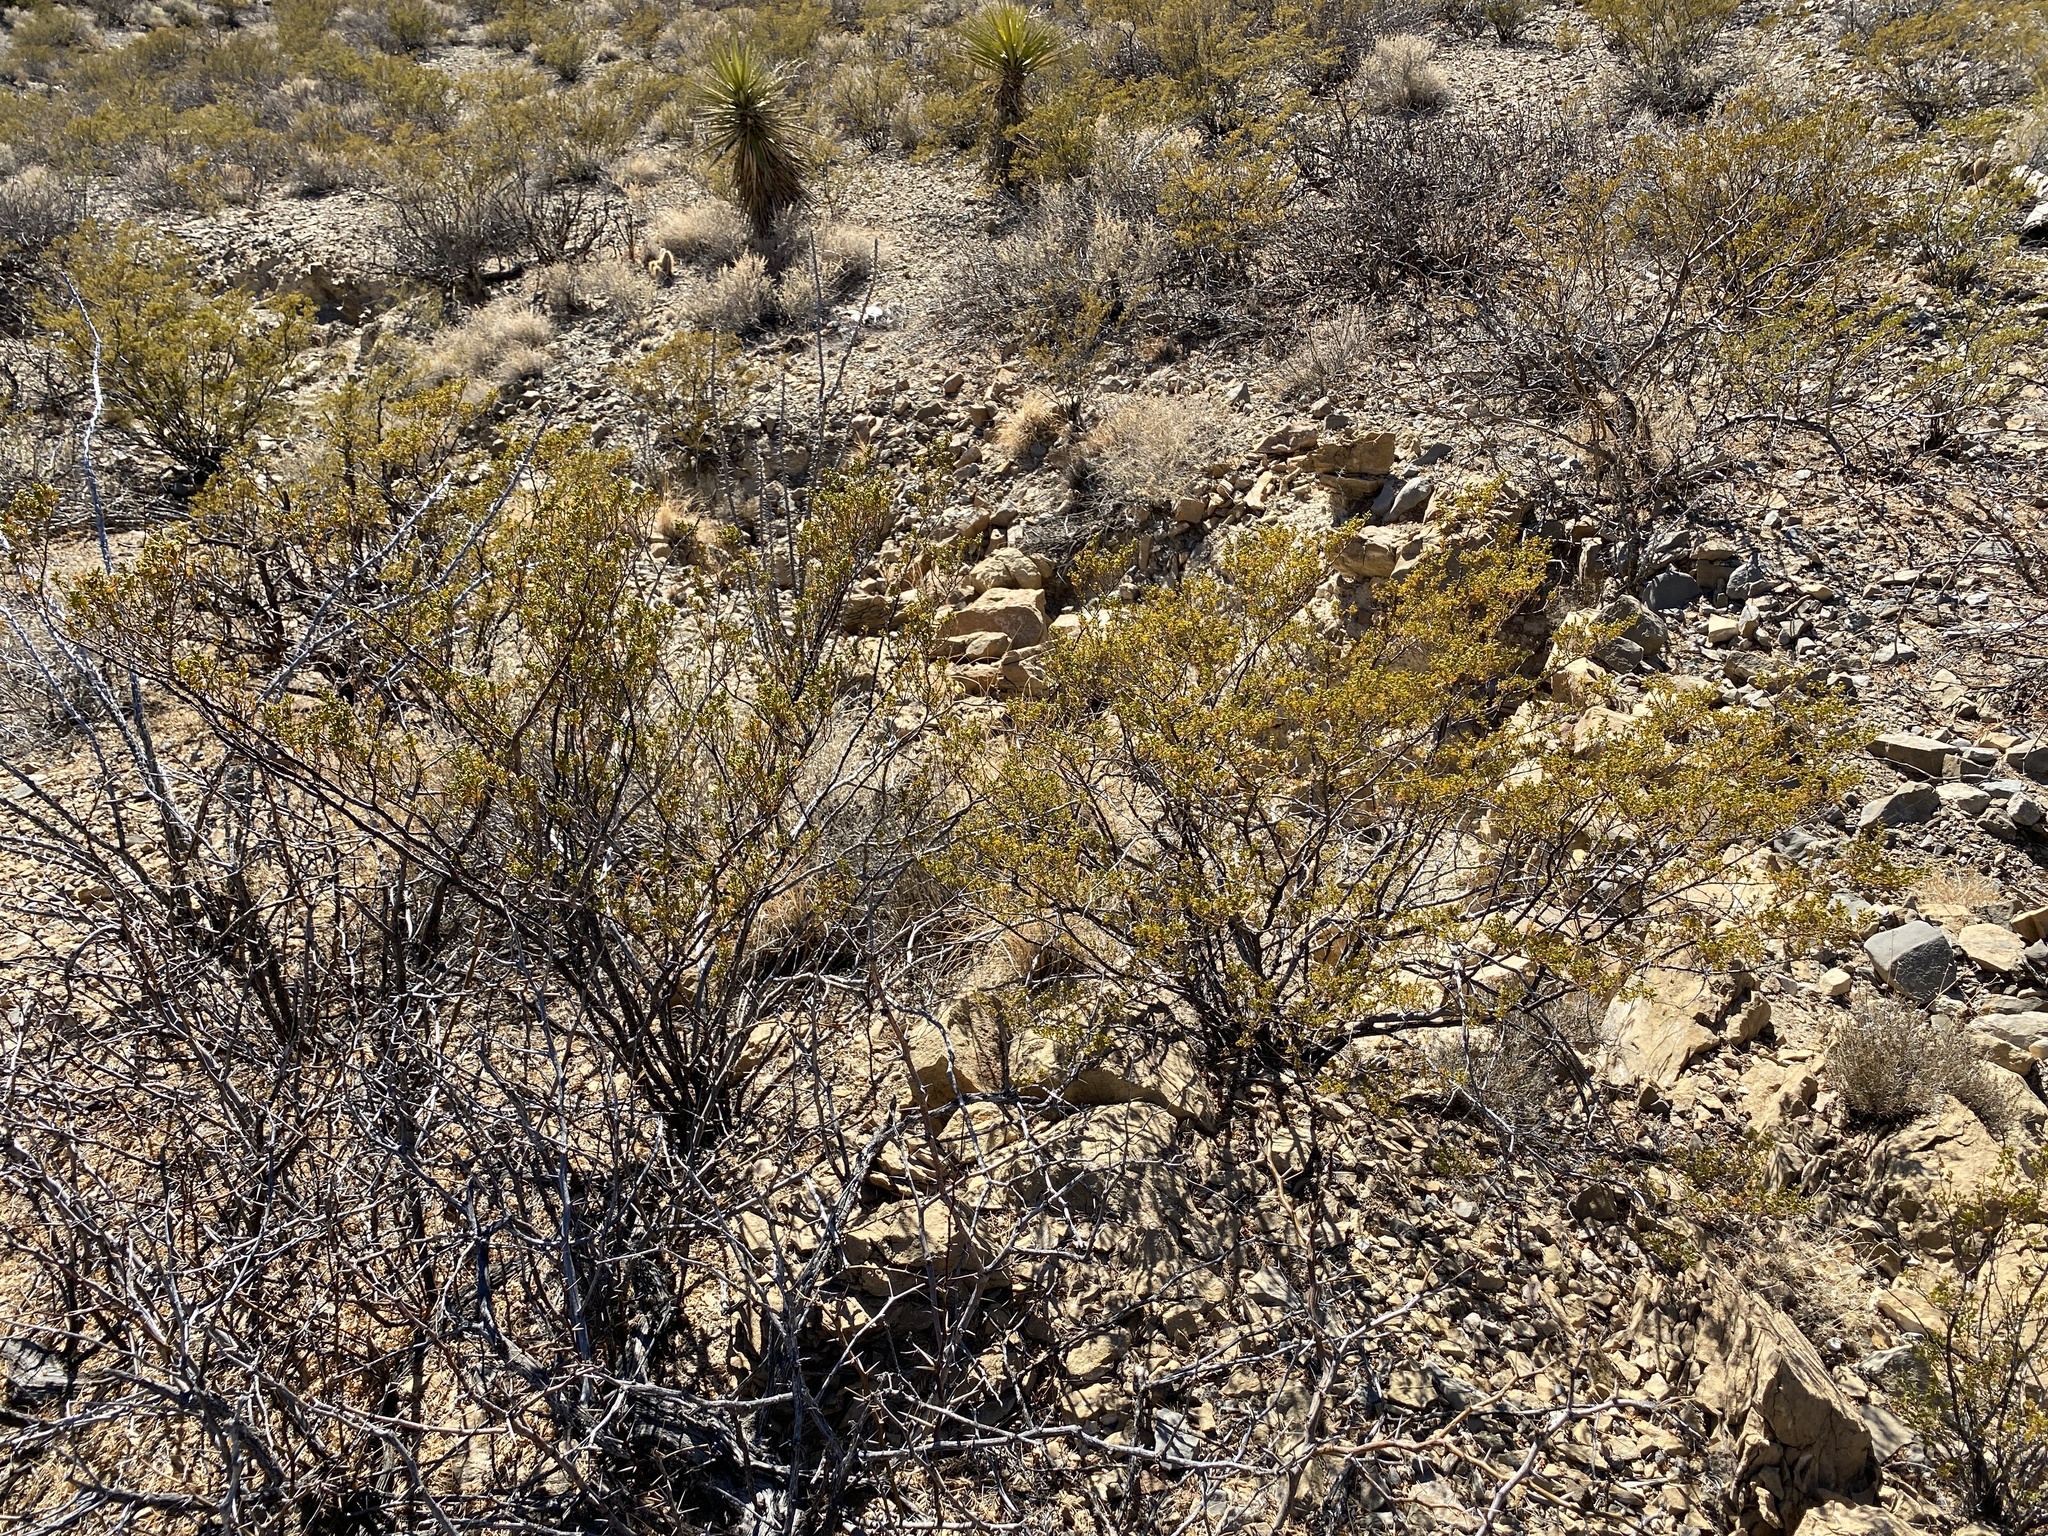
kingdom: Plantae
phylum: Tracheophyta
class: Magnoliopsida
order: Zygophyllales
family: Zygophyllaceae
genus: Larrea
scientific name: Larrea tridentata
